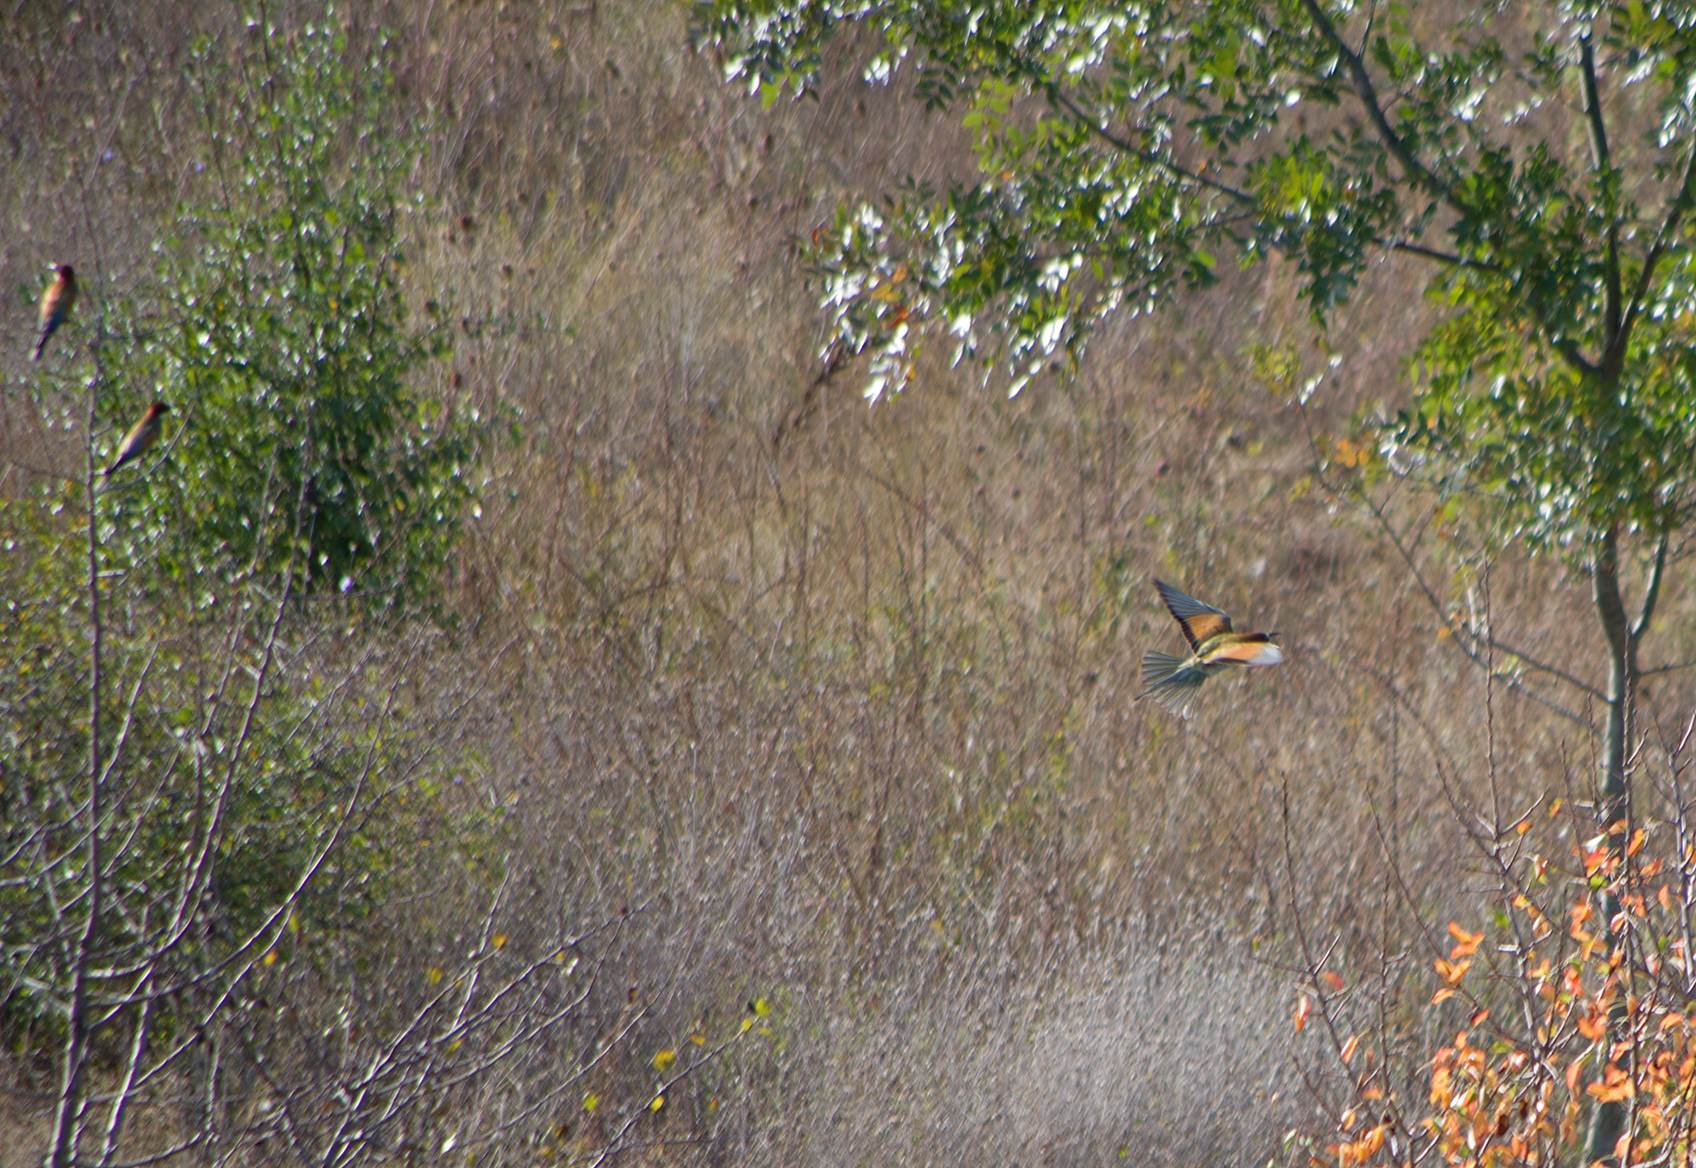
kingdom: Animalia
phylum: Chordata
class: Aves
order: Coraciiformes
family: Meropidae
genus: Merops
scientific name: Merops apiaster
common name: European bee-eater
